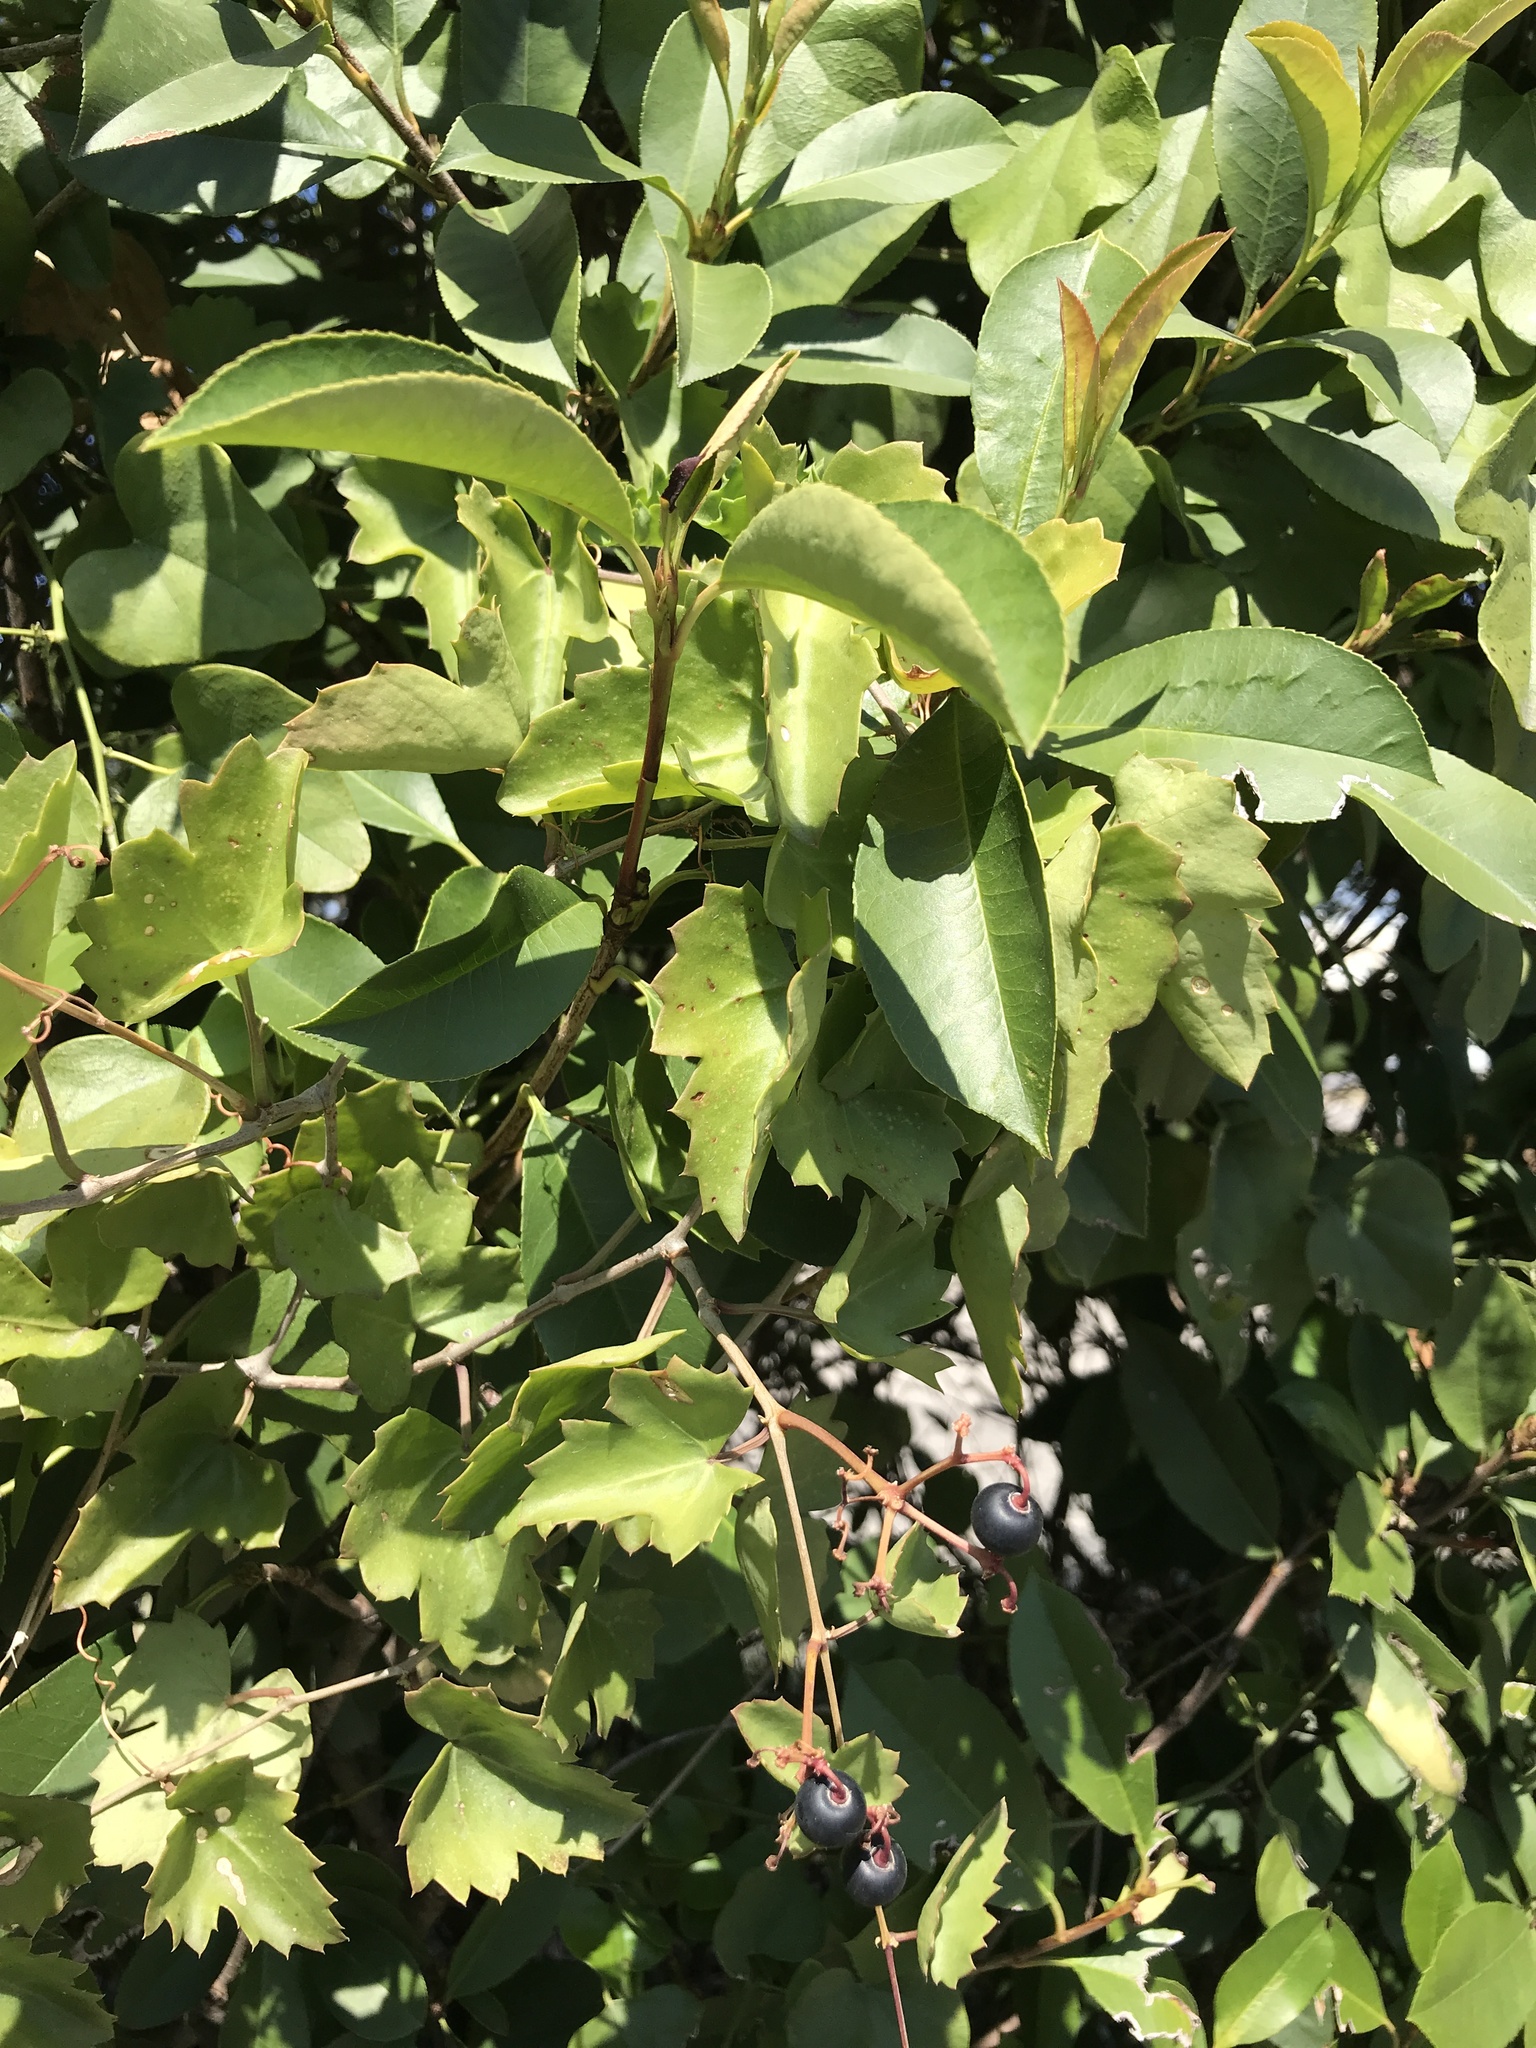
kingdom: Plantae
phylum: Tracheophyta
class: Magnoliopsida
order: Vitales
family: Vitaceae
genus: Cissus
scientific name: Cissus trifoliata
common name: Vine-sorrel
